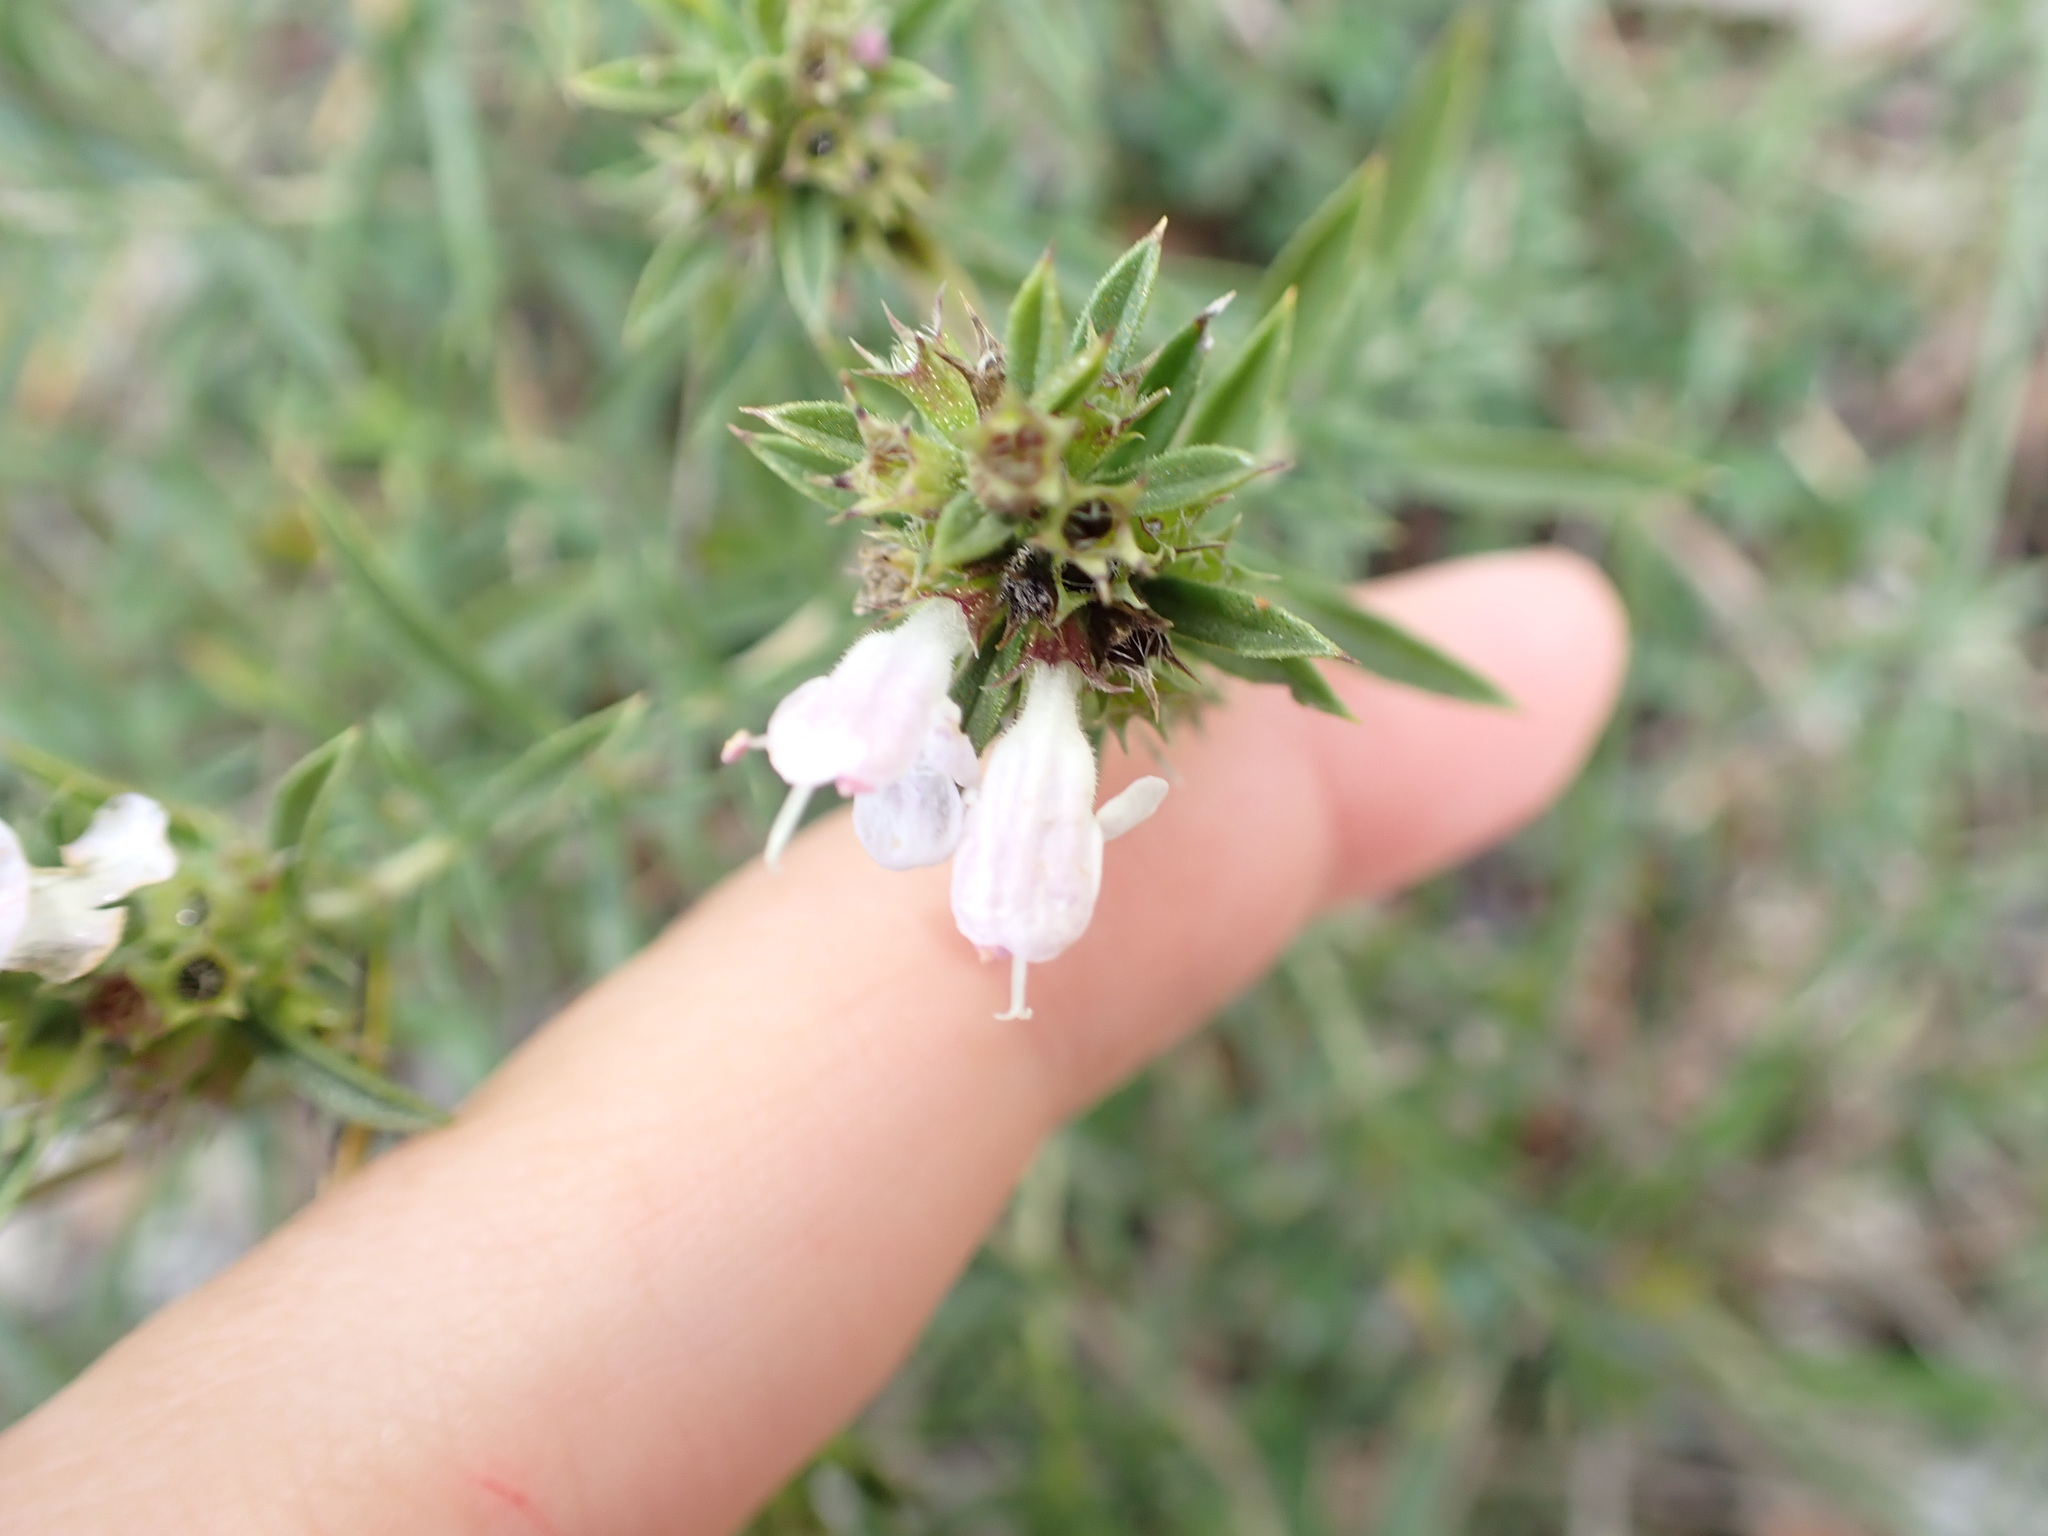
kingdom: Plantae
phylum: Tracheophyta
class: Magnoliopsida
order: Lamiales
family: Lamiaceae
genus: Satureja
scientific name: Satureja montana
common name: Winter savory
